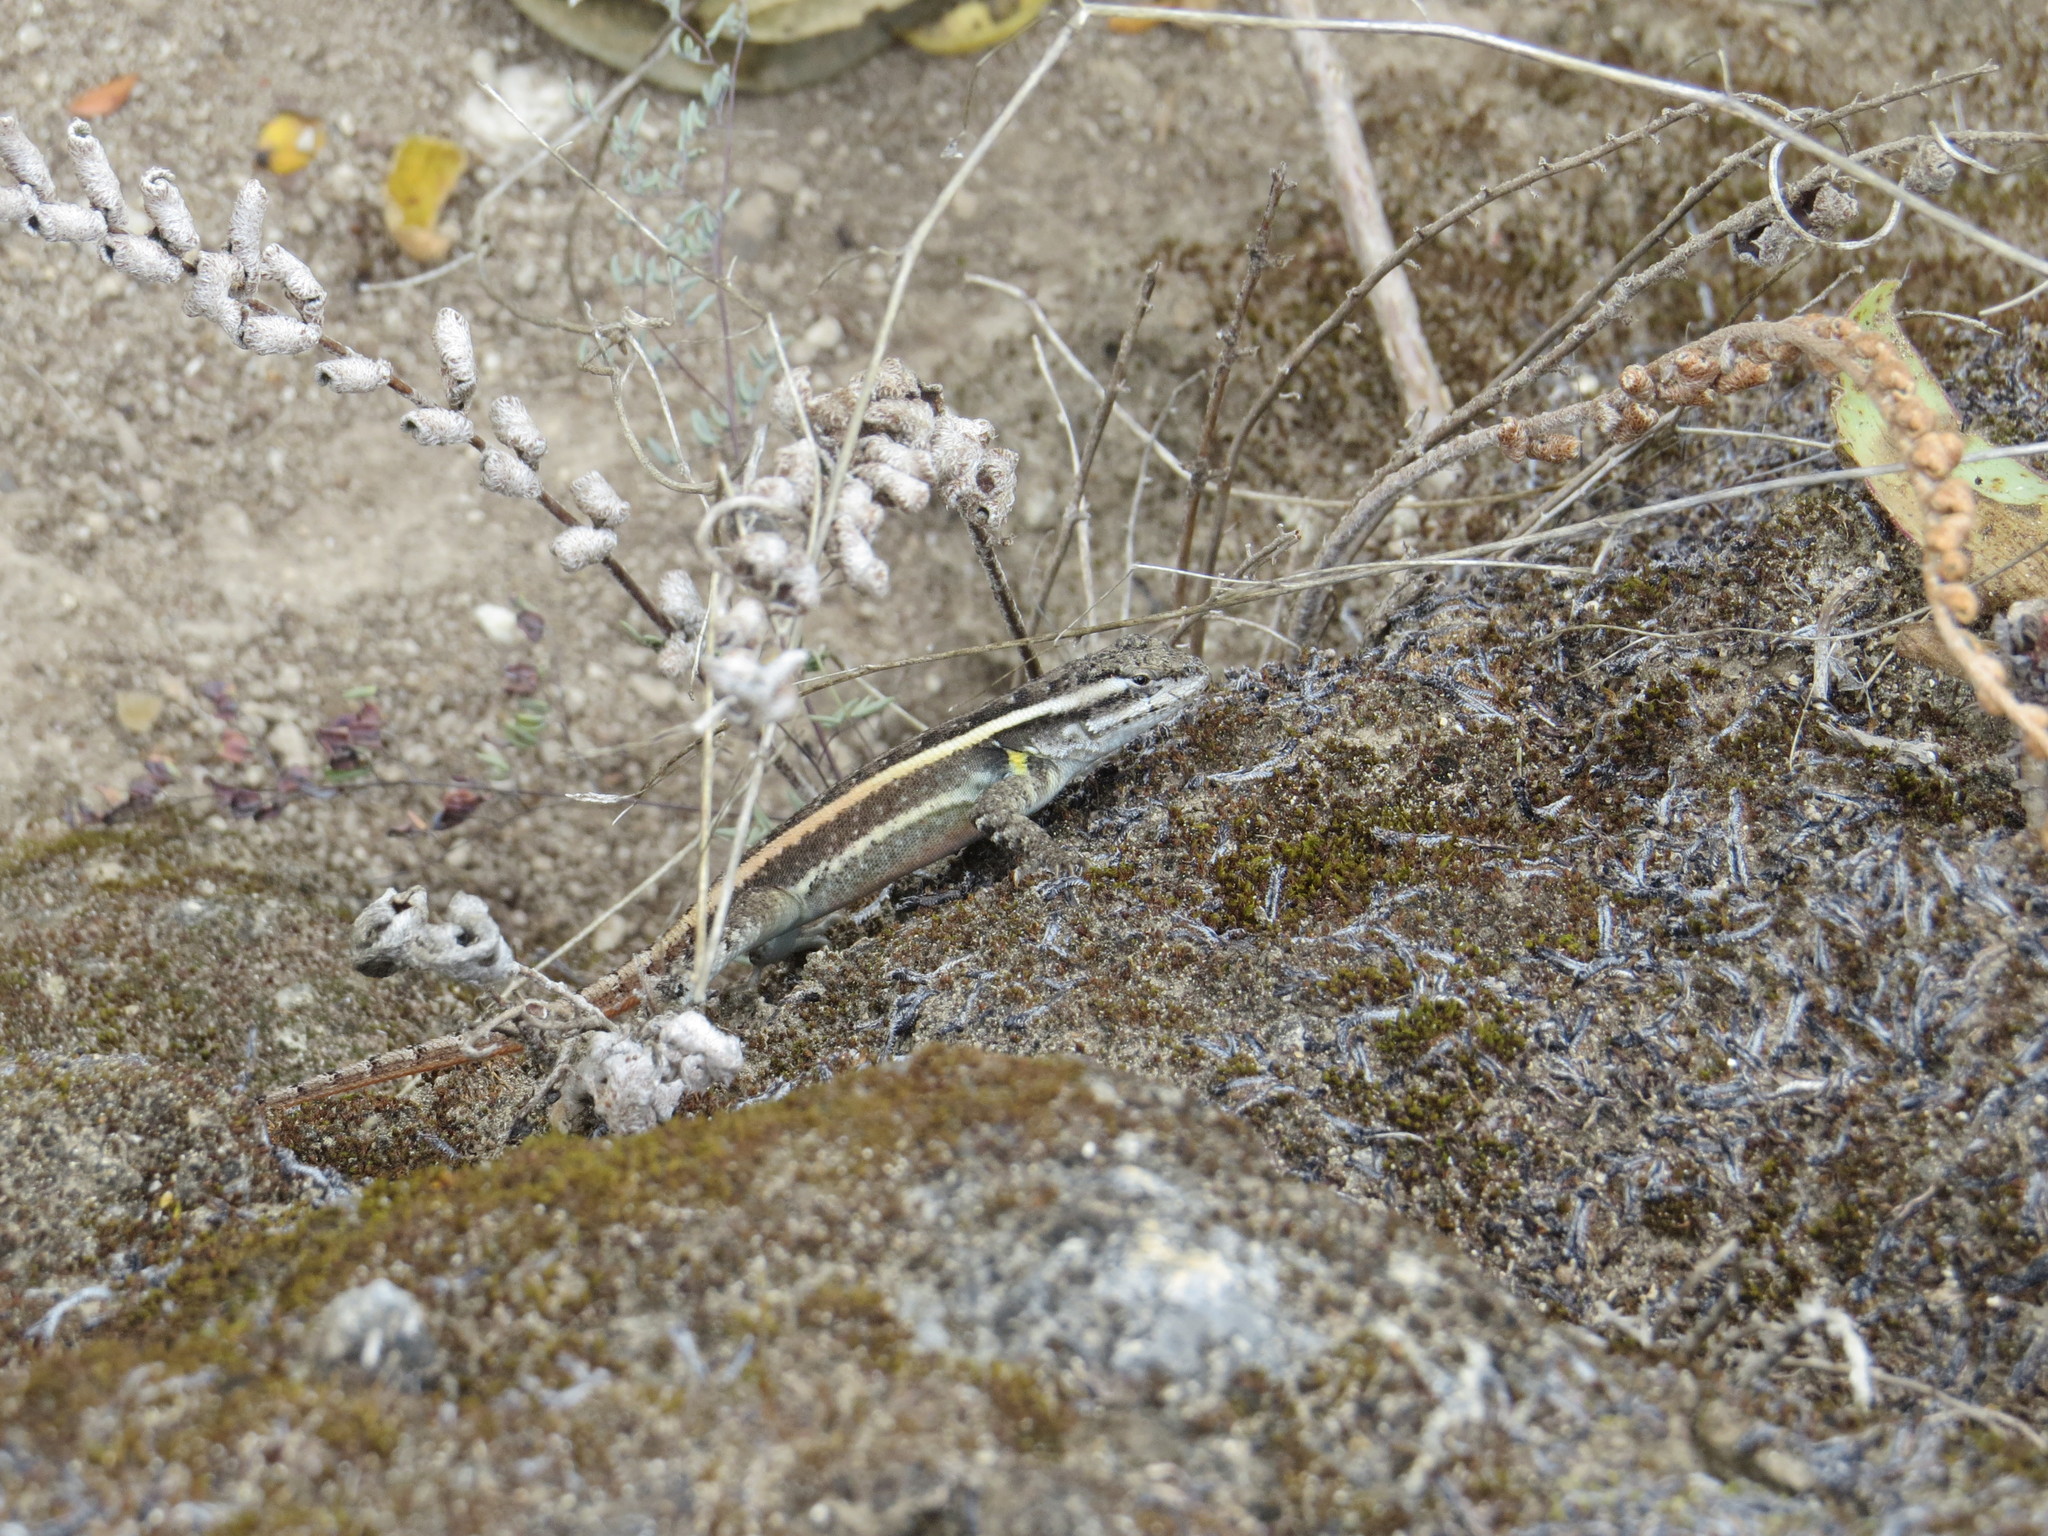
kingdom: Animalia
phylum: Chordata
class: Squamata
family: Phrynosomatidae
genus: Sceloporus
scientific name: Sceloporus siniferus
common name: Longtail spiny lizard
